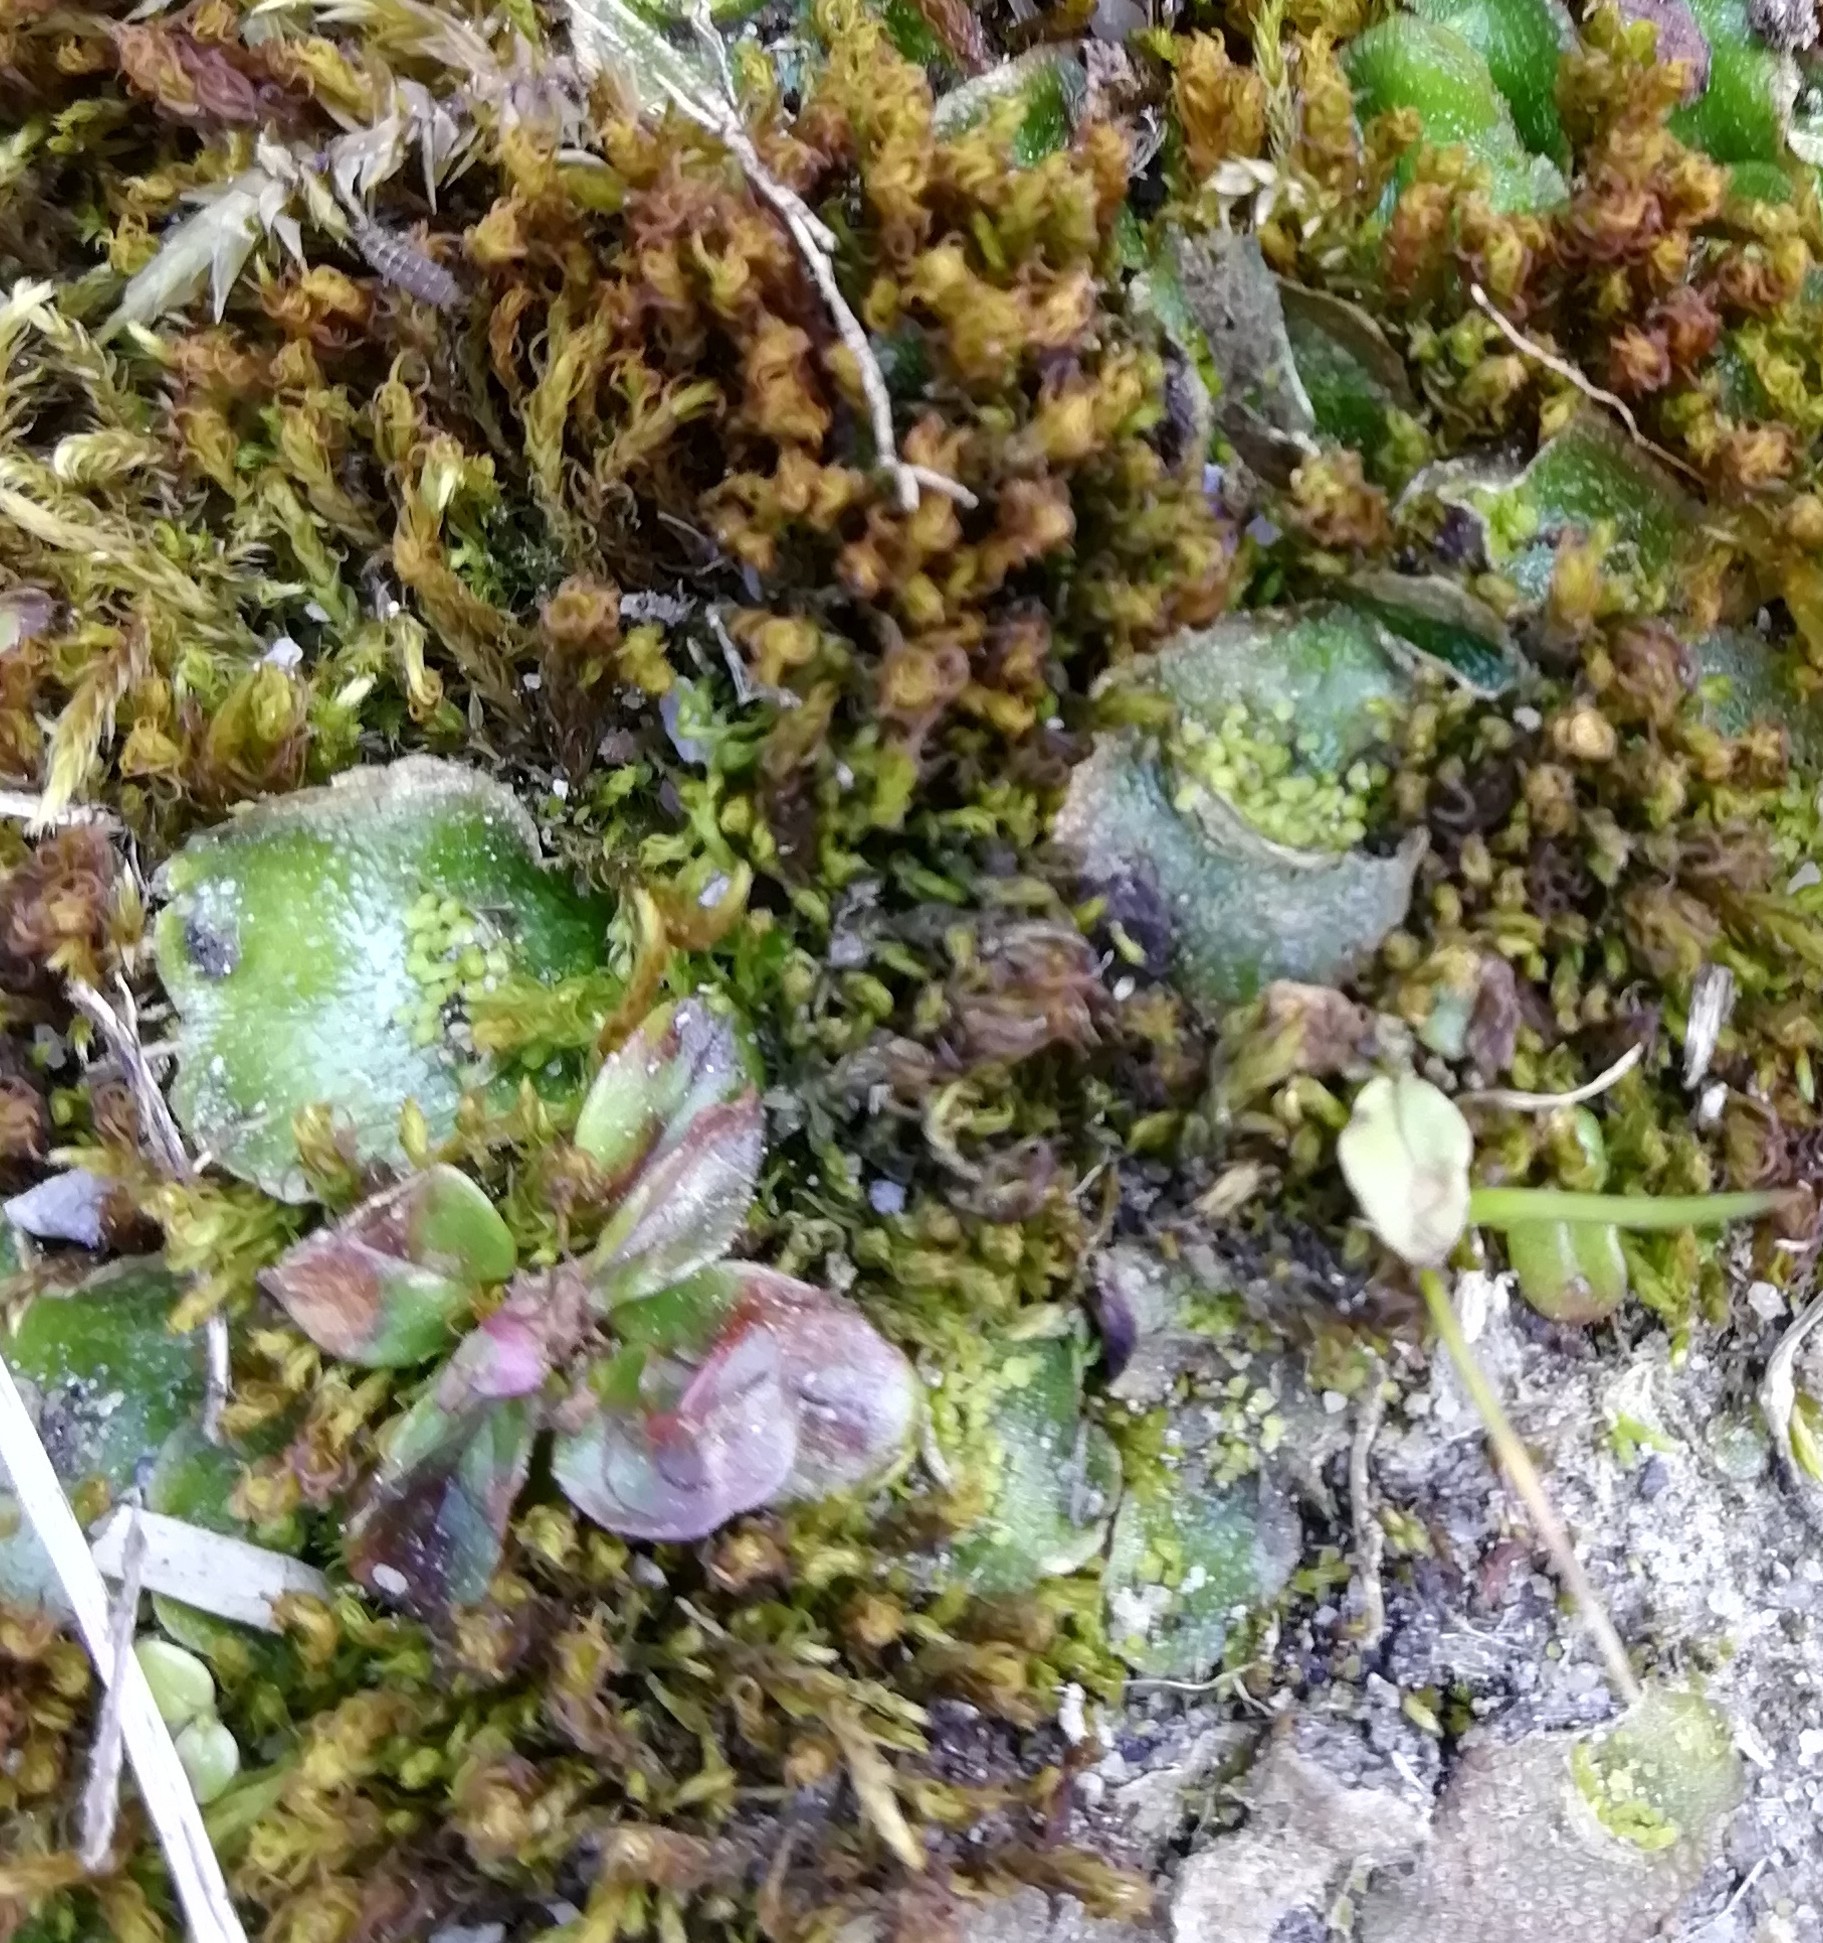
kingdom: Plantae
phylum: Marchantiophyta
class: Marchantiopsida
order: Lunulariales
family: Lunulariaceae
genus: Lunularia
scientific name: Lunularia cruciata
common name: Crescent-cup liverwort
